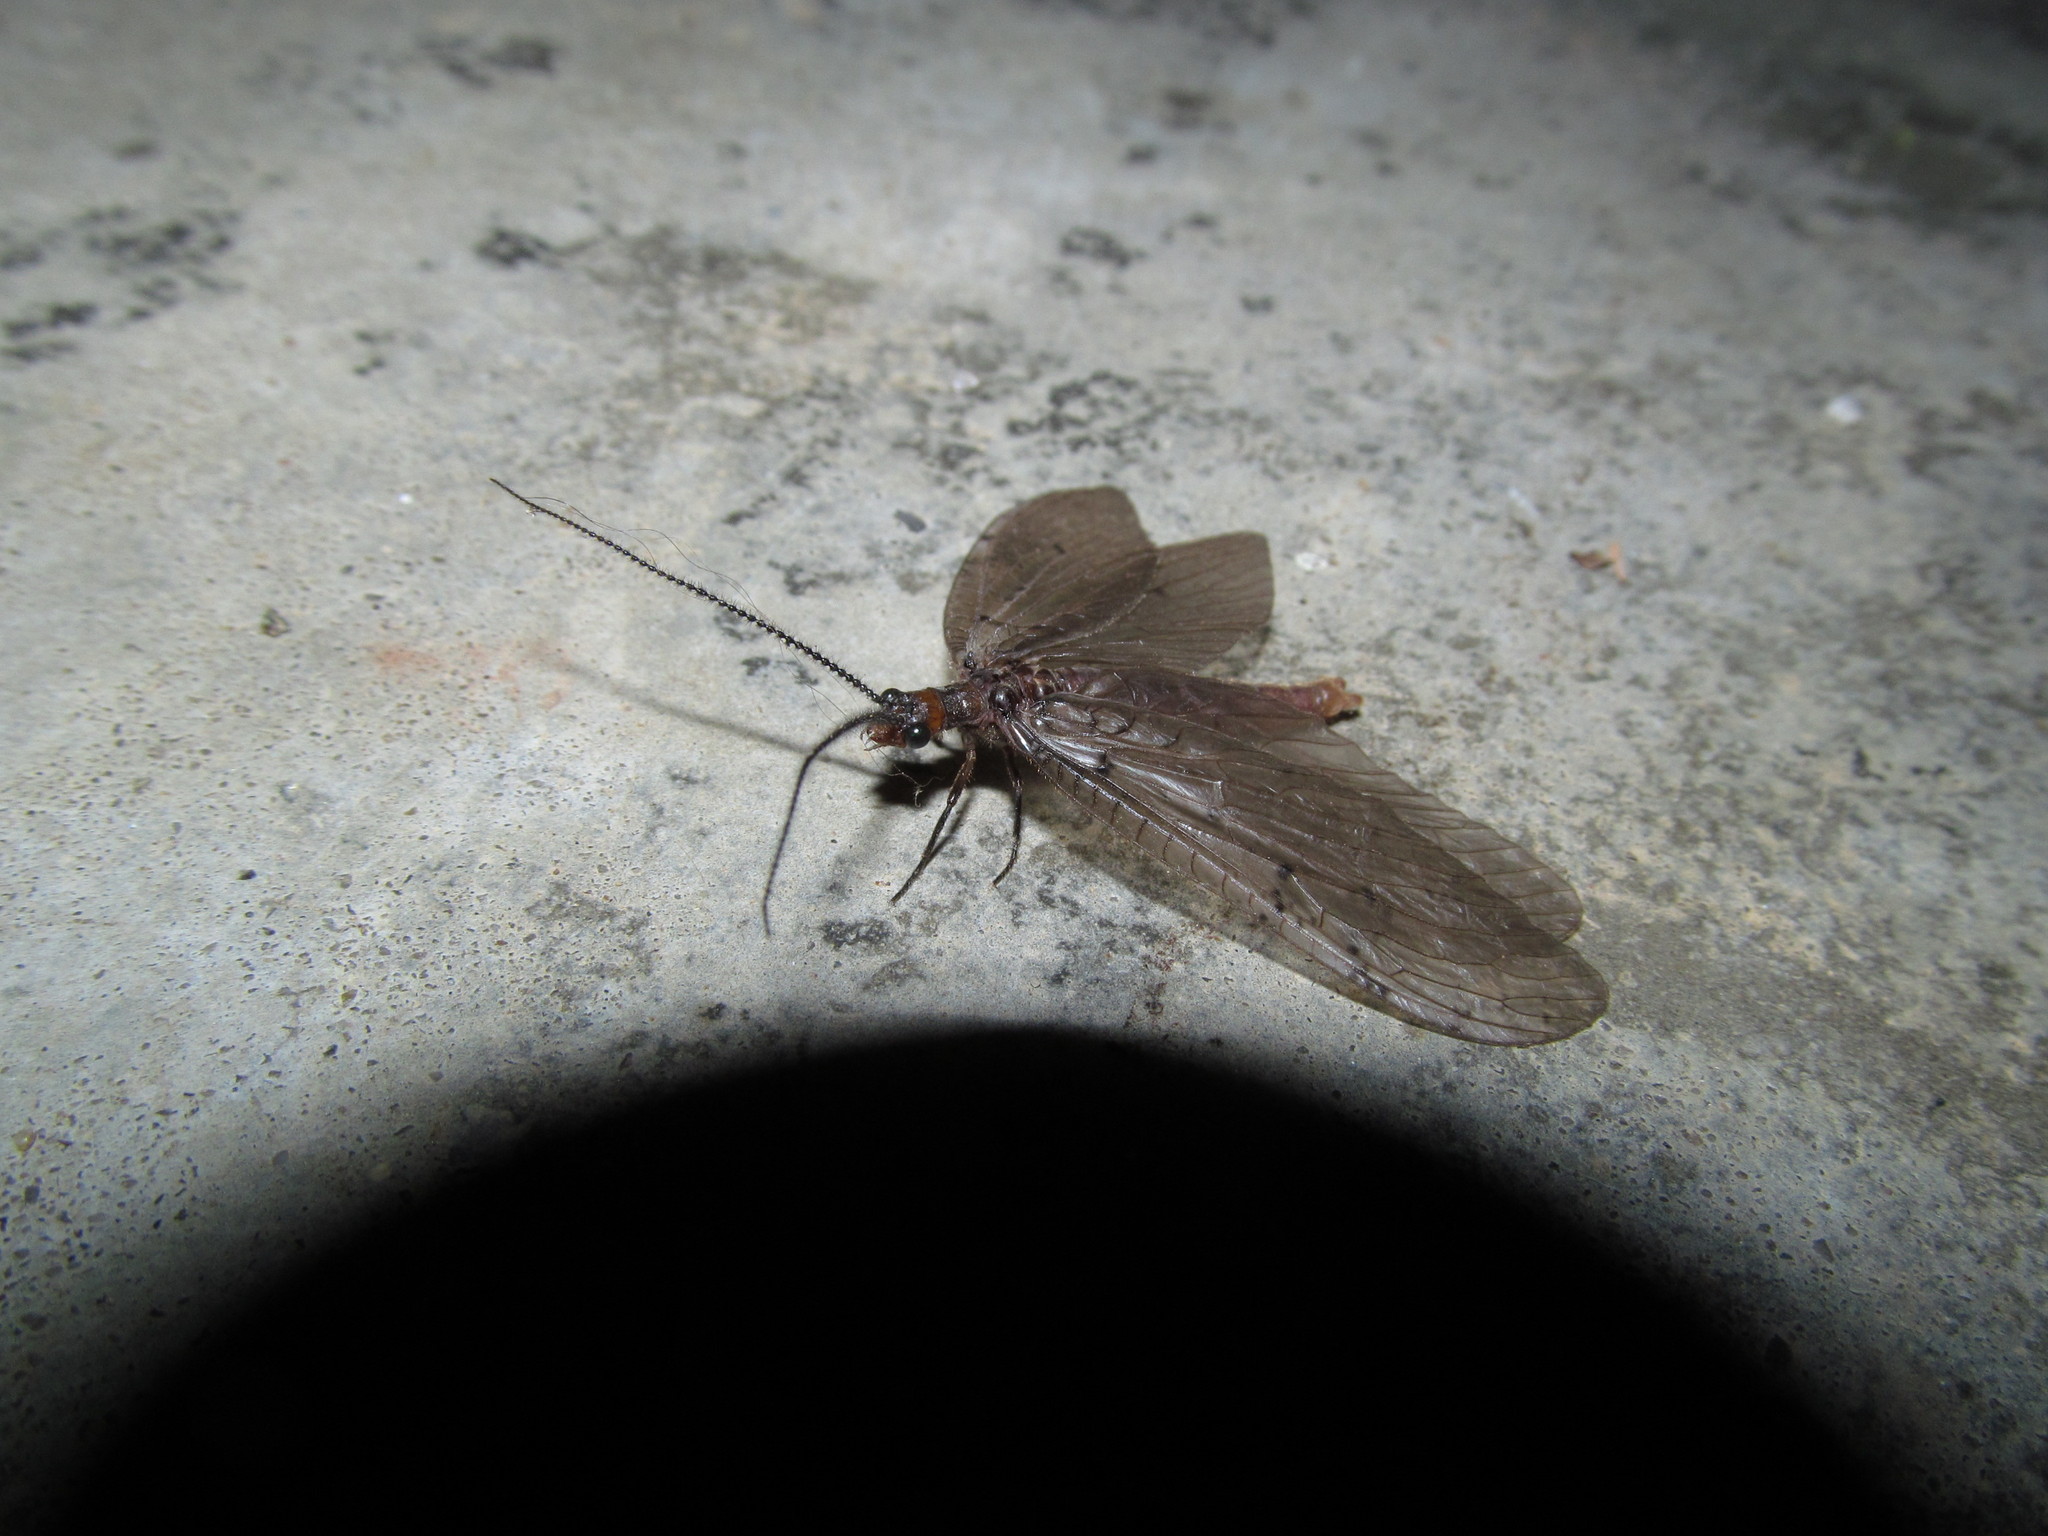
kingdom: Animalia
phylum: Arthropoda
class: Insecta
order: Megaloptera
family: Corydalidae
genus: Neohermes
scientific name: Neohermes concolor
